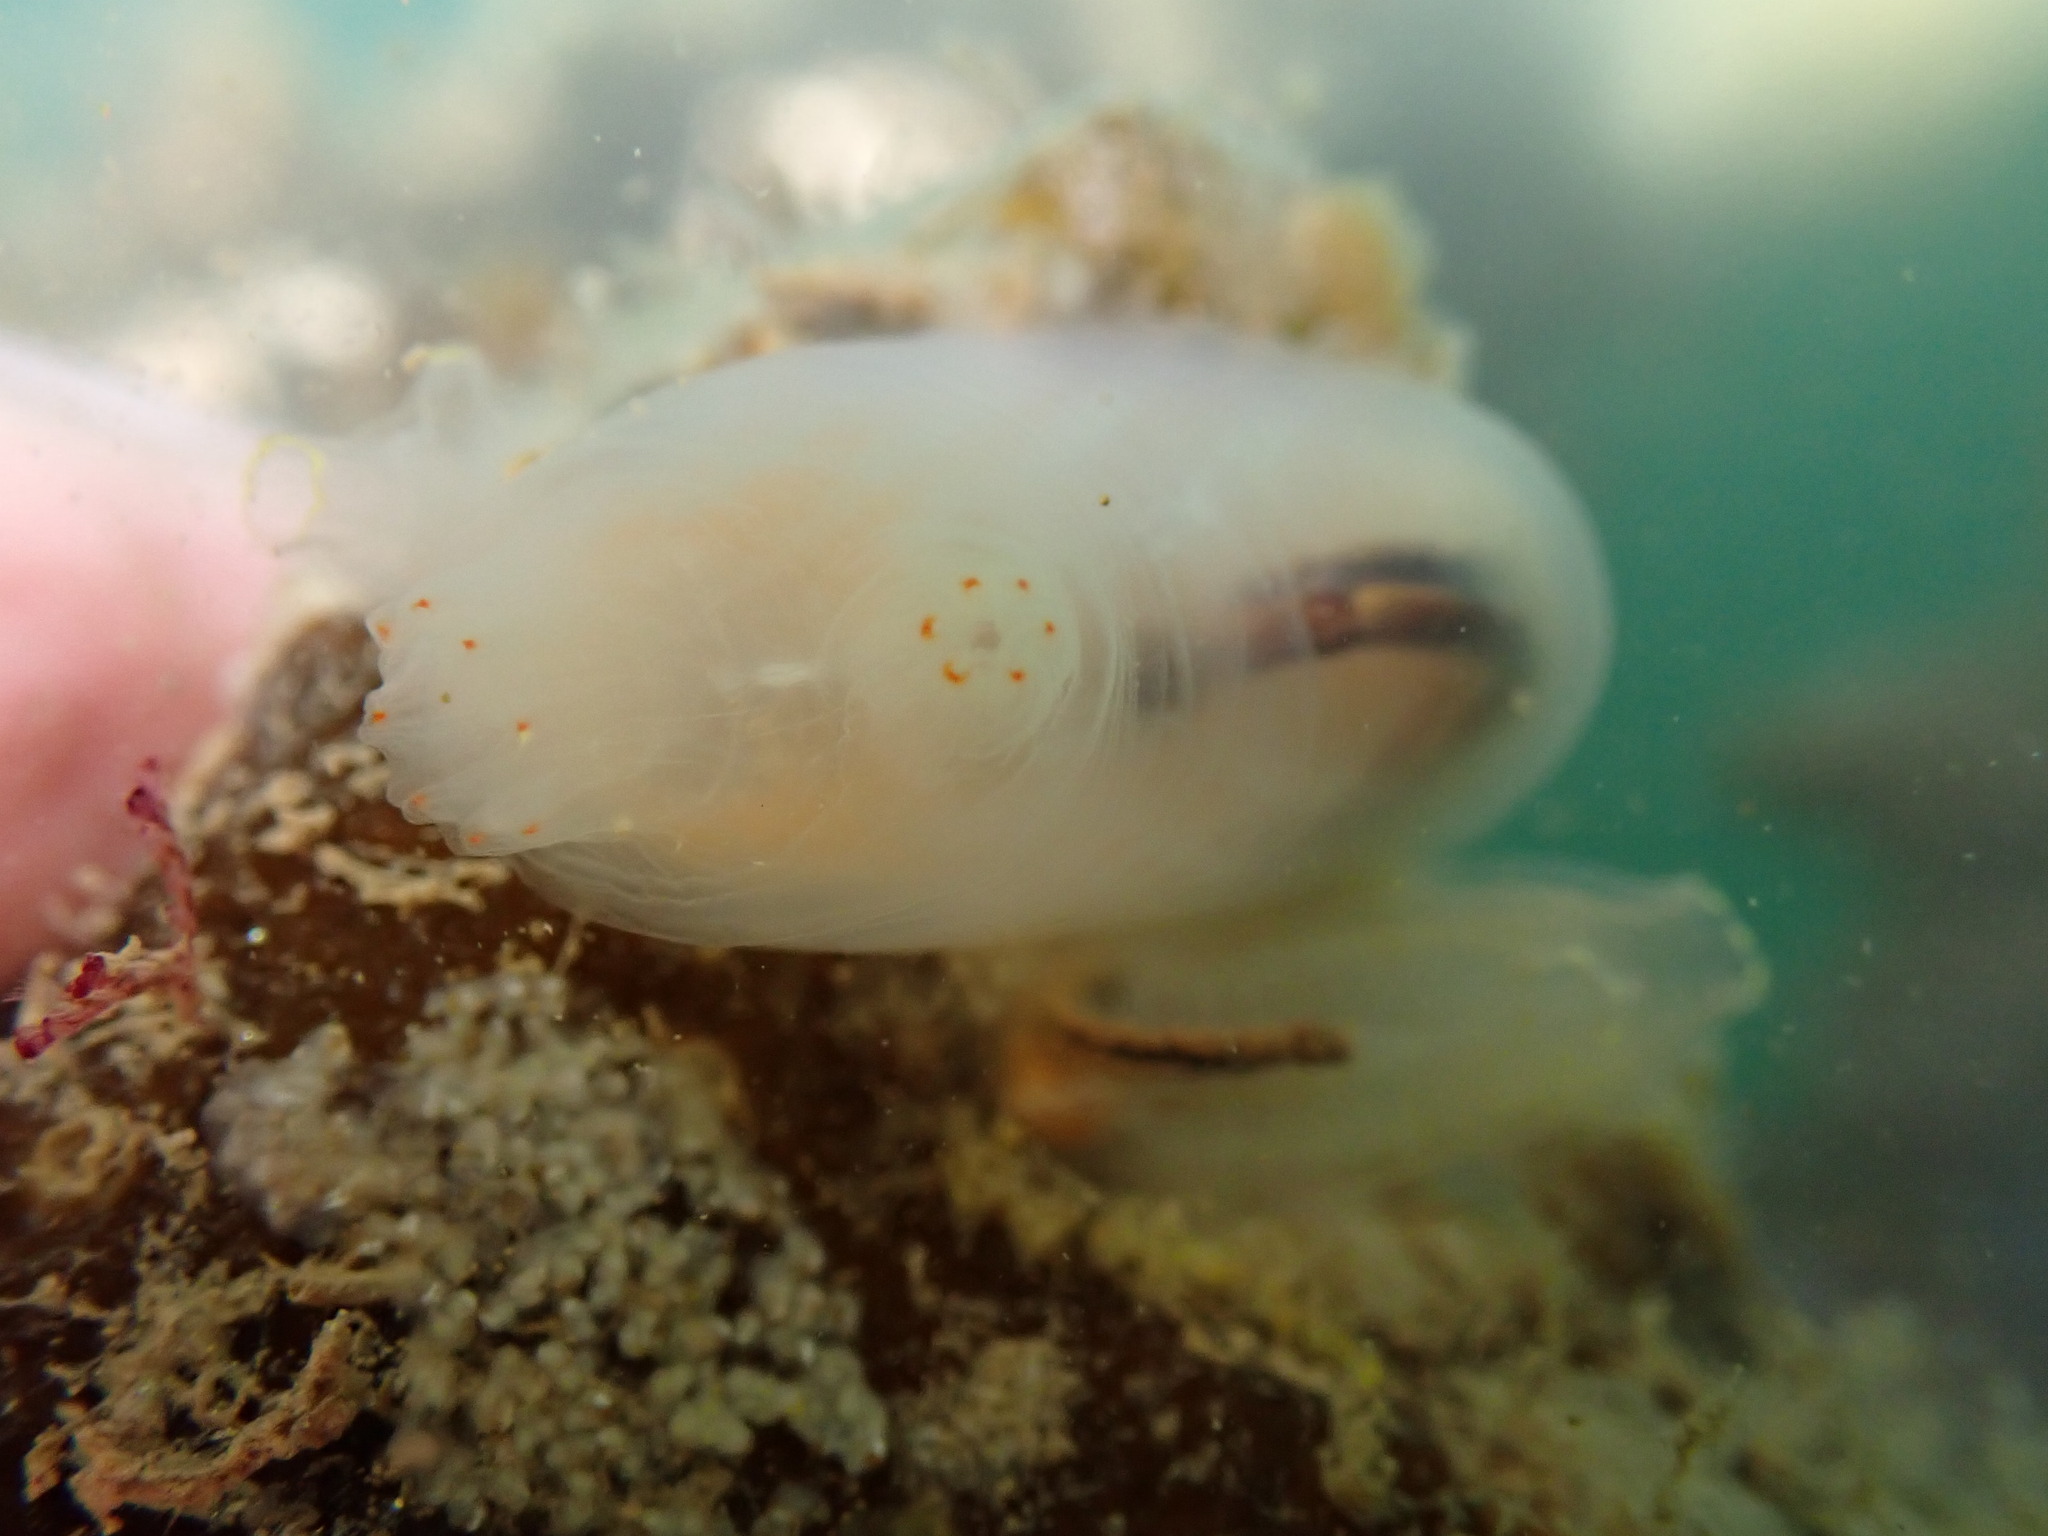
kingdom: Animalia
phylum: Chordata
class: Ascidiacea
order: Phlebobranchia
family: Cionidae
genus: Ciona
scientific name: Ciona intestinalis
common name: Vase tunicate
